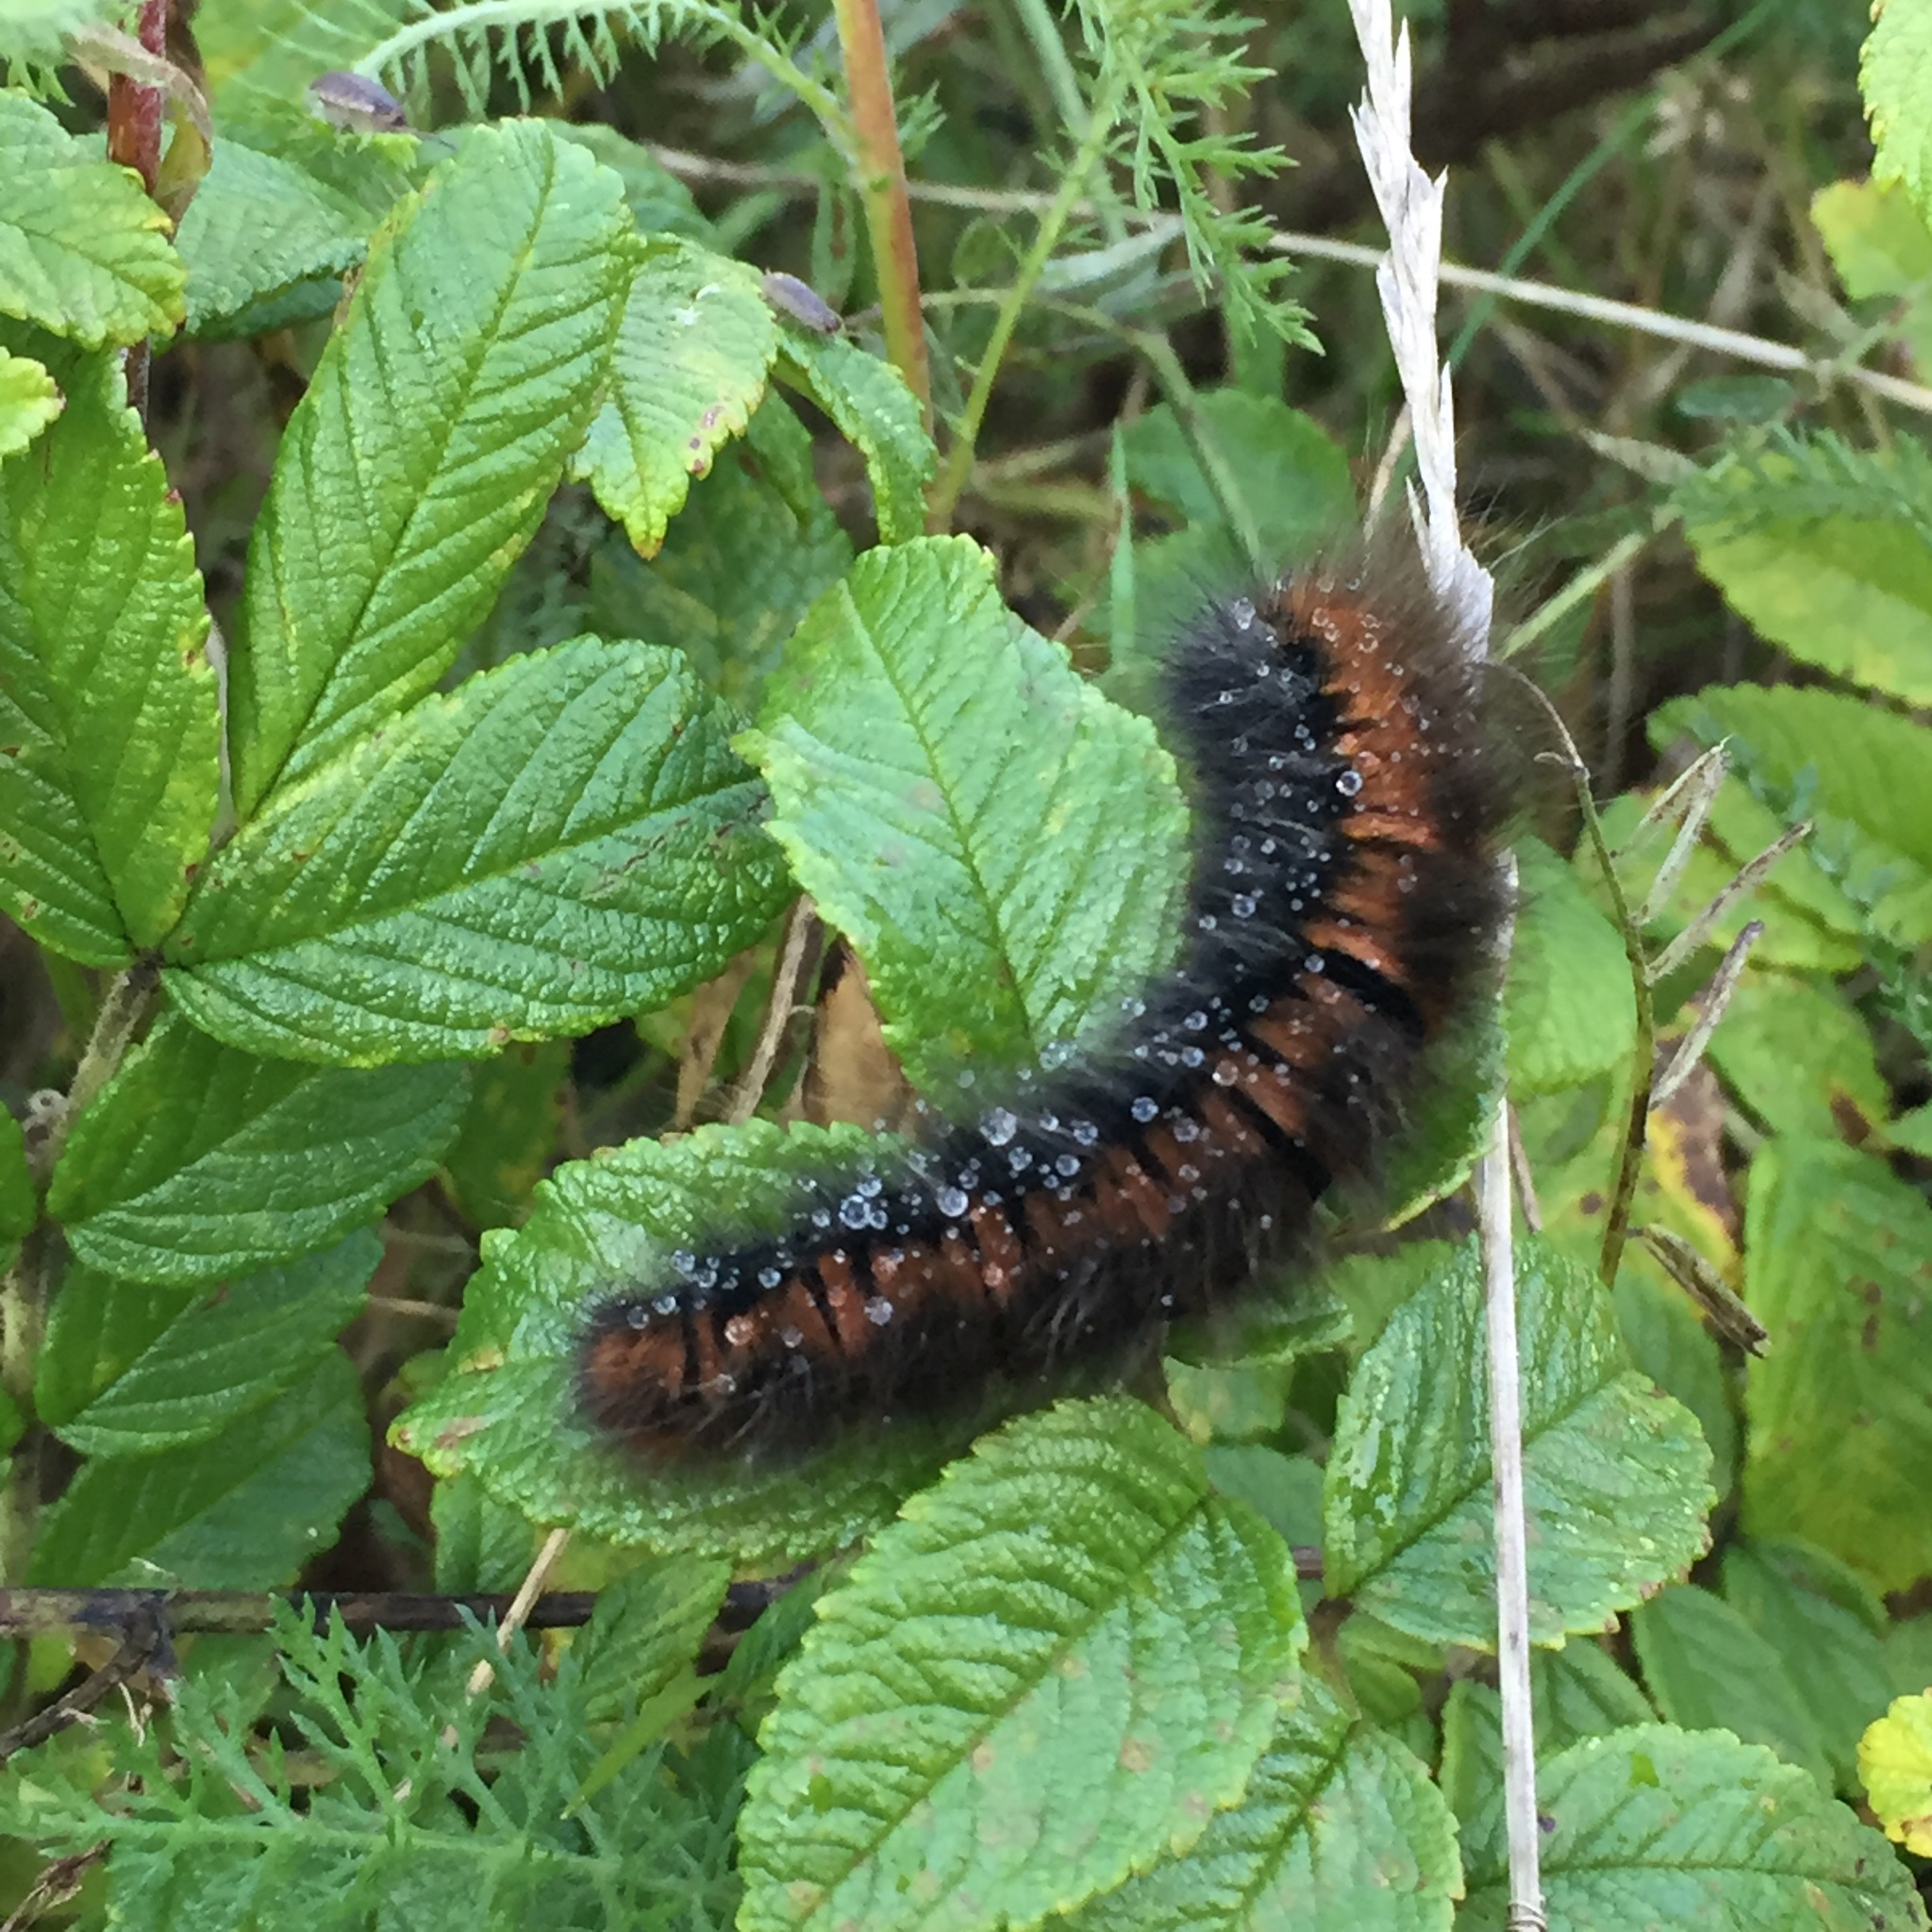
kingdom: Animalia
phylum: Arthropoda
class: Insecta
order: Lepidoptera
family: Lasiocampidae
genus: Macrothylacia
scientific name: Macrothylacia rubi
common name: Fox moth
